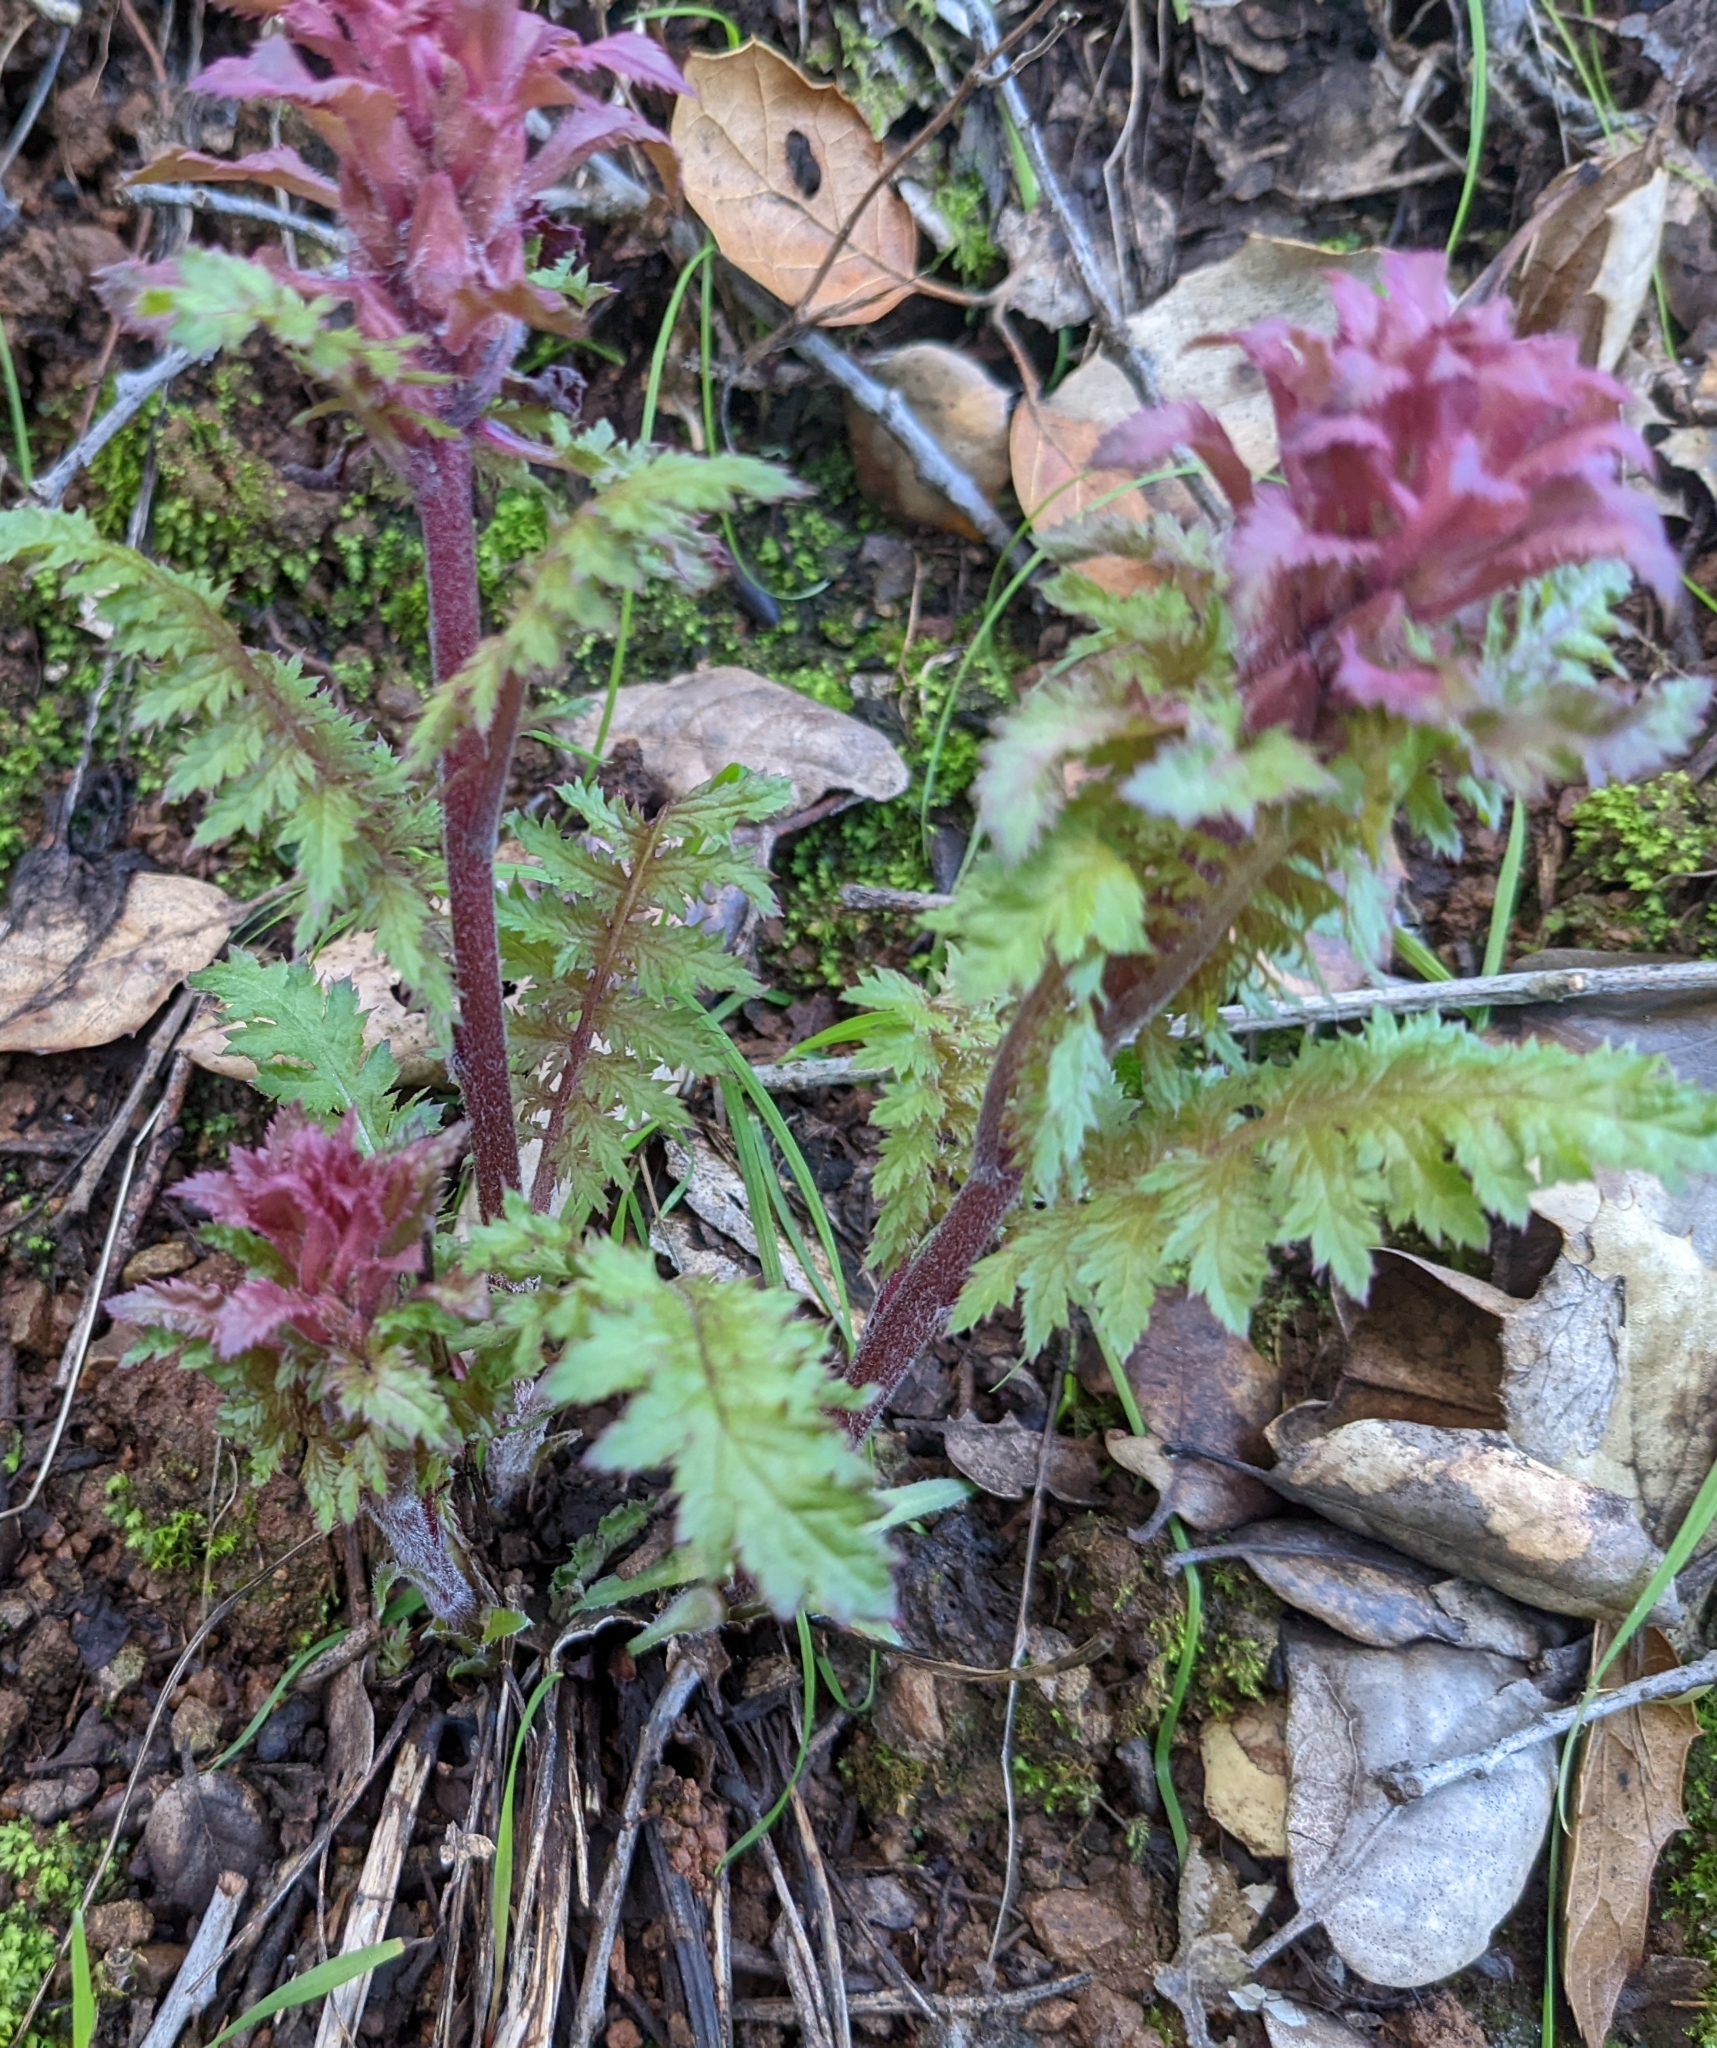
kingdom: Plantae
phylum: Tracheophyta
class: Magnoliopsida
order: Lamiales
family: Orobanchaceae
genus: Pedicularis
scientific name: Pedicularis densiflora
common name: Indian warrior
